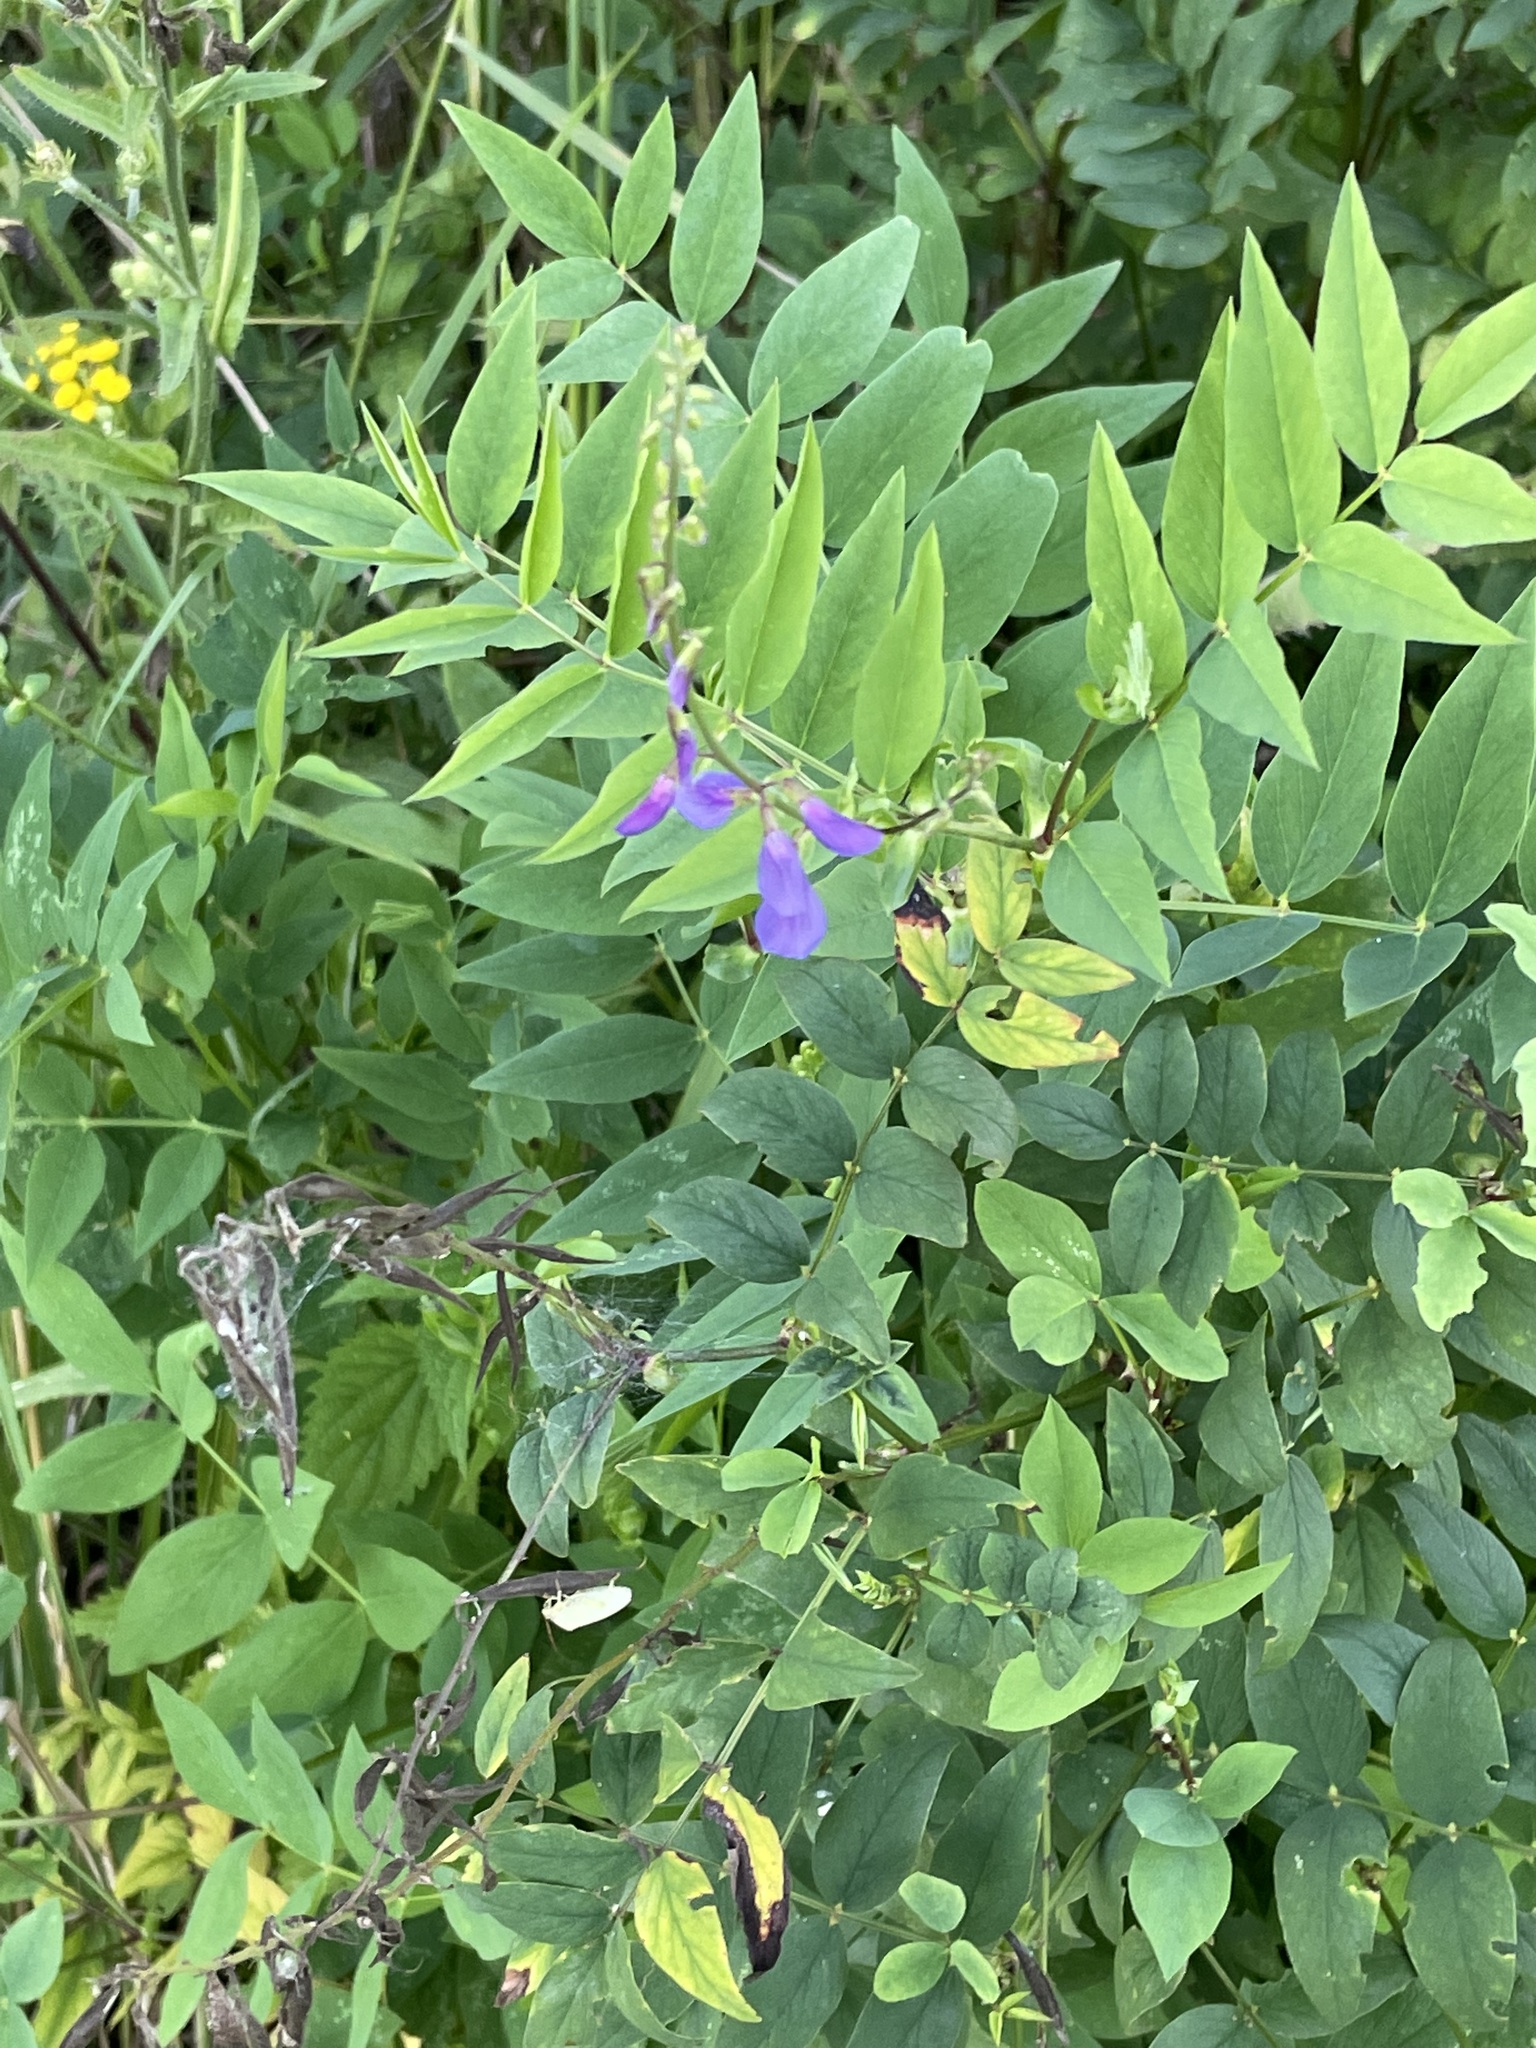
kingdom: Plantae
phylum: Tracheophyta
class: Magnoliopsida
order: Fabales
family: Fabaceae
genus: Galega
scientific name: Galega orientalis
